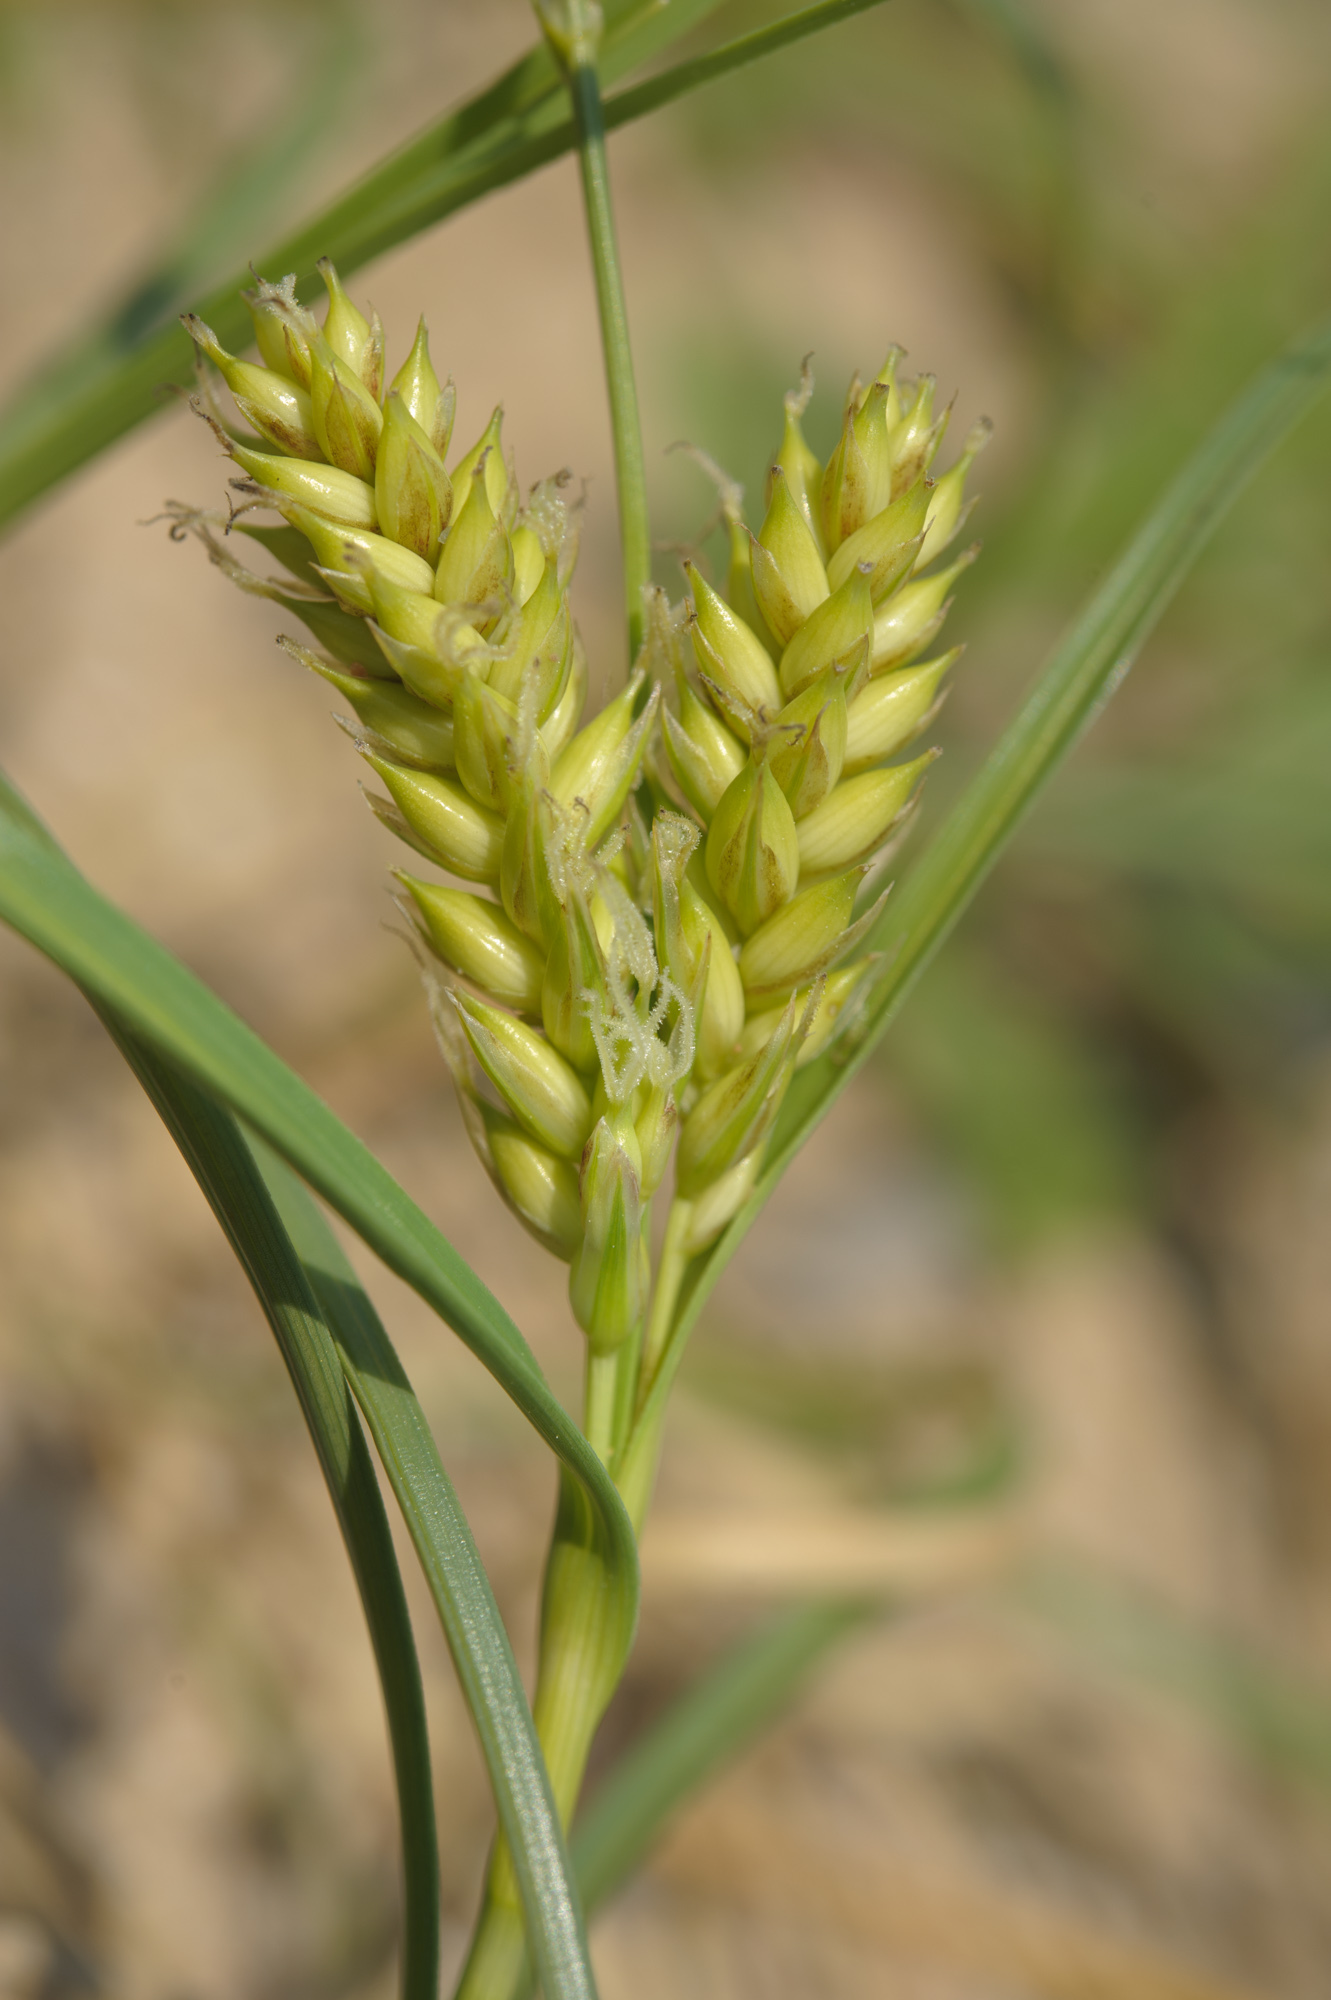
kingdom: Plantae
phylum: Tracheophyta
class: Liliopsida
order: Poales
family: Cyperaceae
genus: Carex
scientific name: Carex pumila
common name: Dwarf sedge
